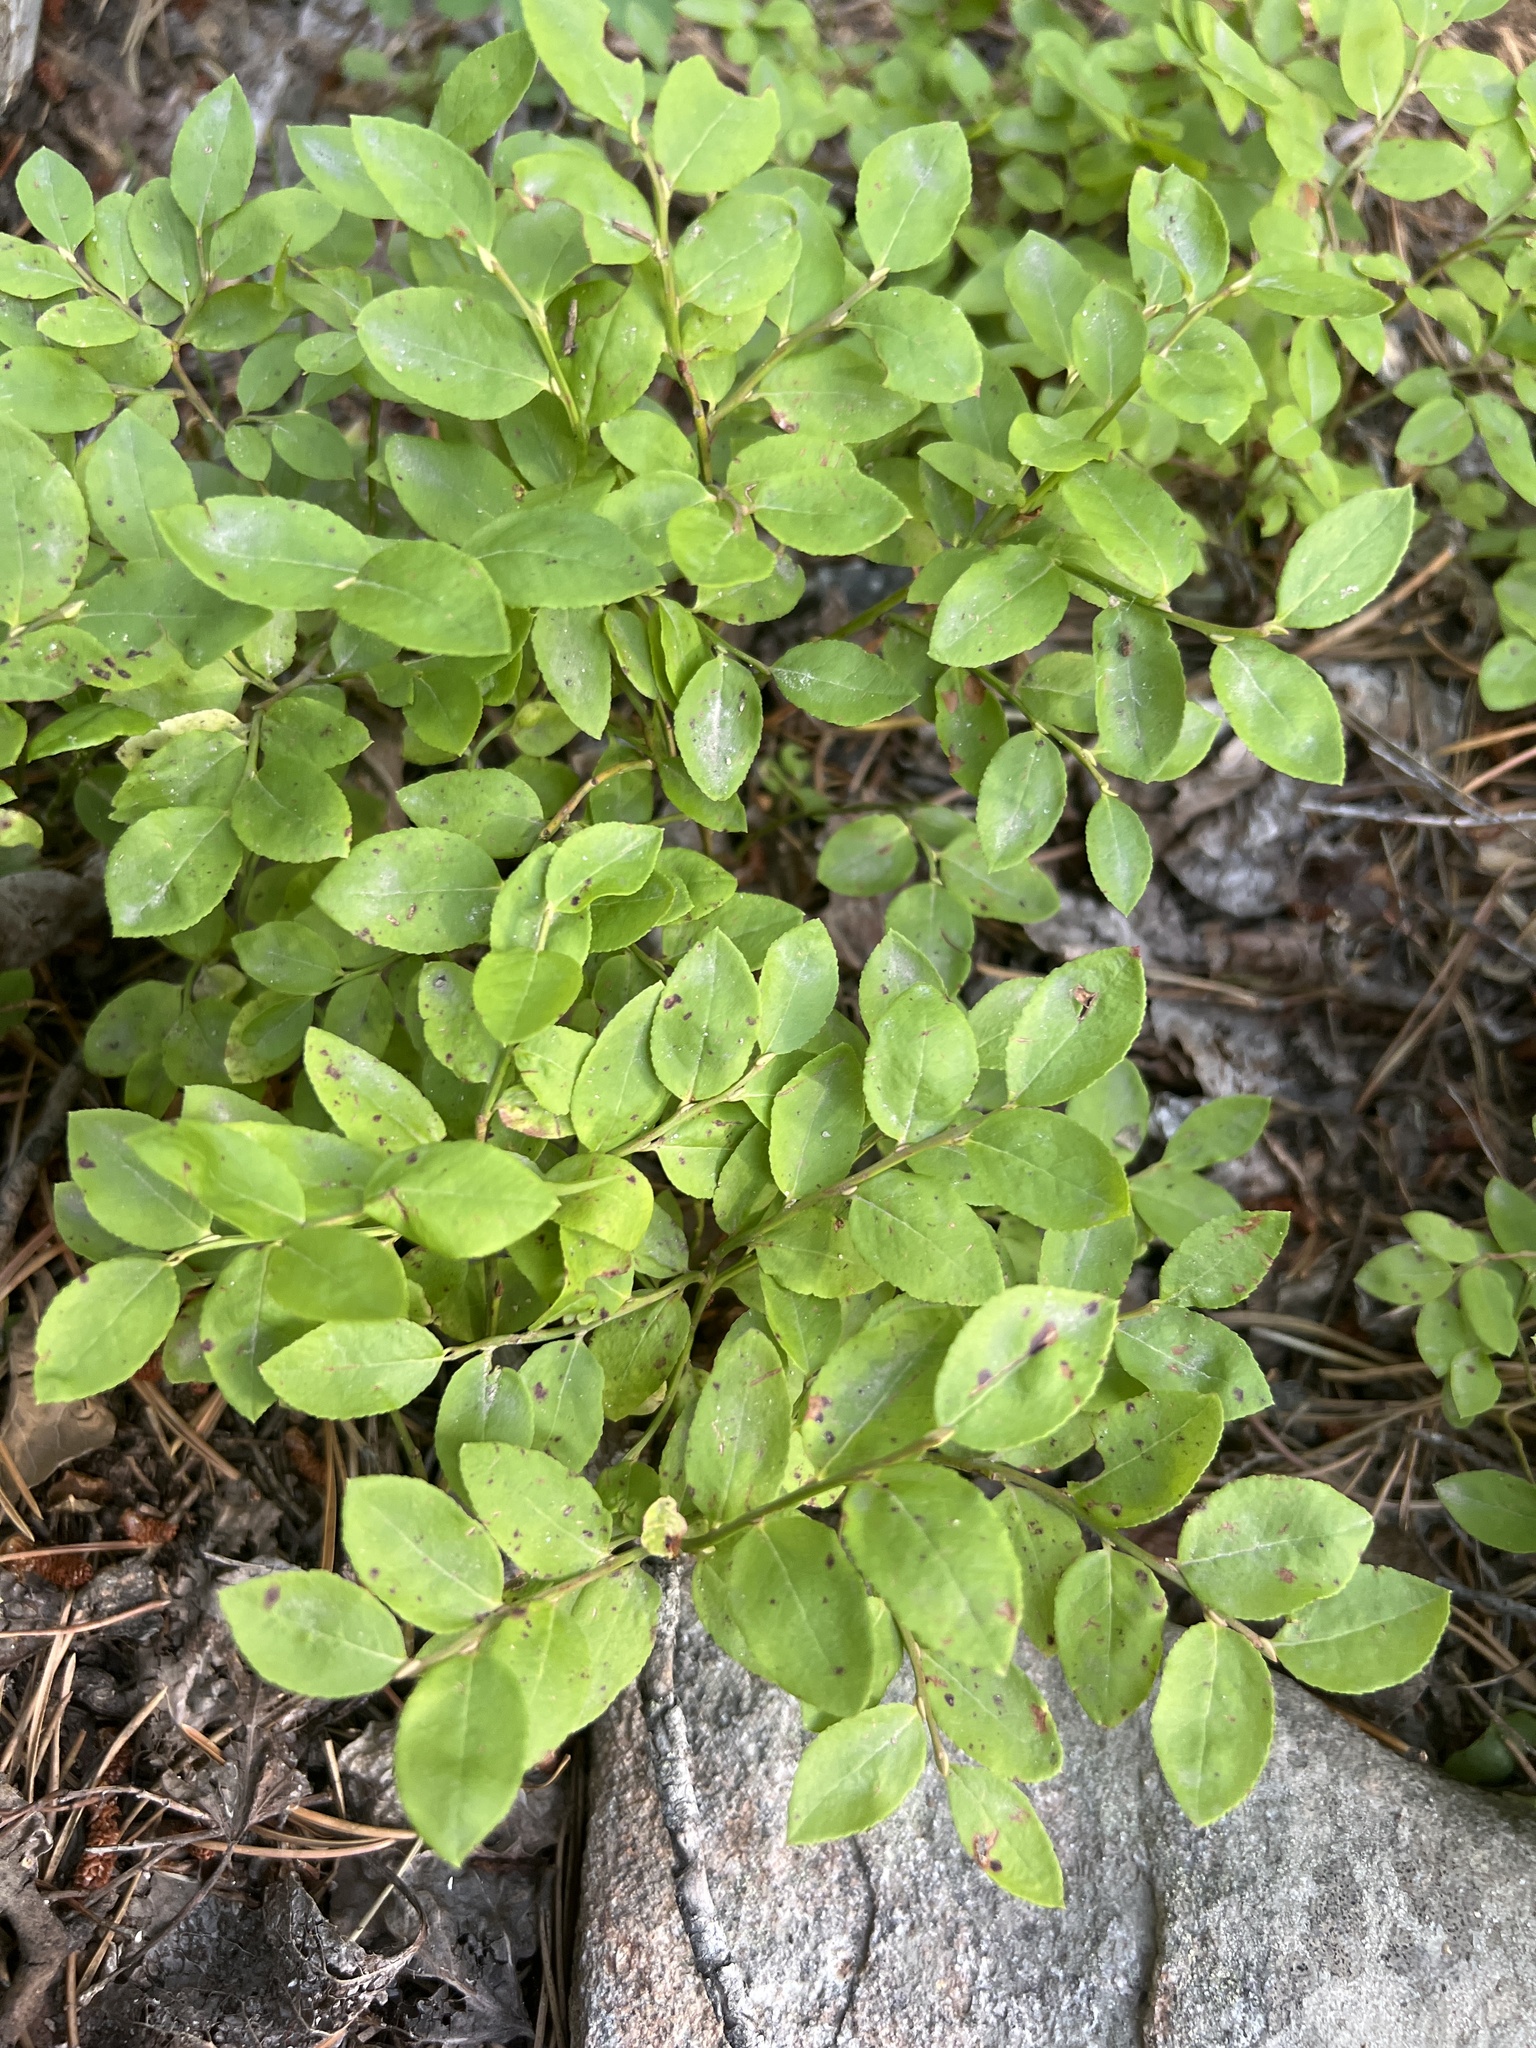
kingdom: Plantae
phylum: Tracheophyta
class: Magnoliopsida
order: Ericales
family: Ericaceae
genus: Vaccinium
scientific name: Vaccinium myrtillus
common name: Bilberry
